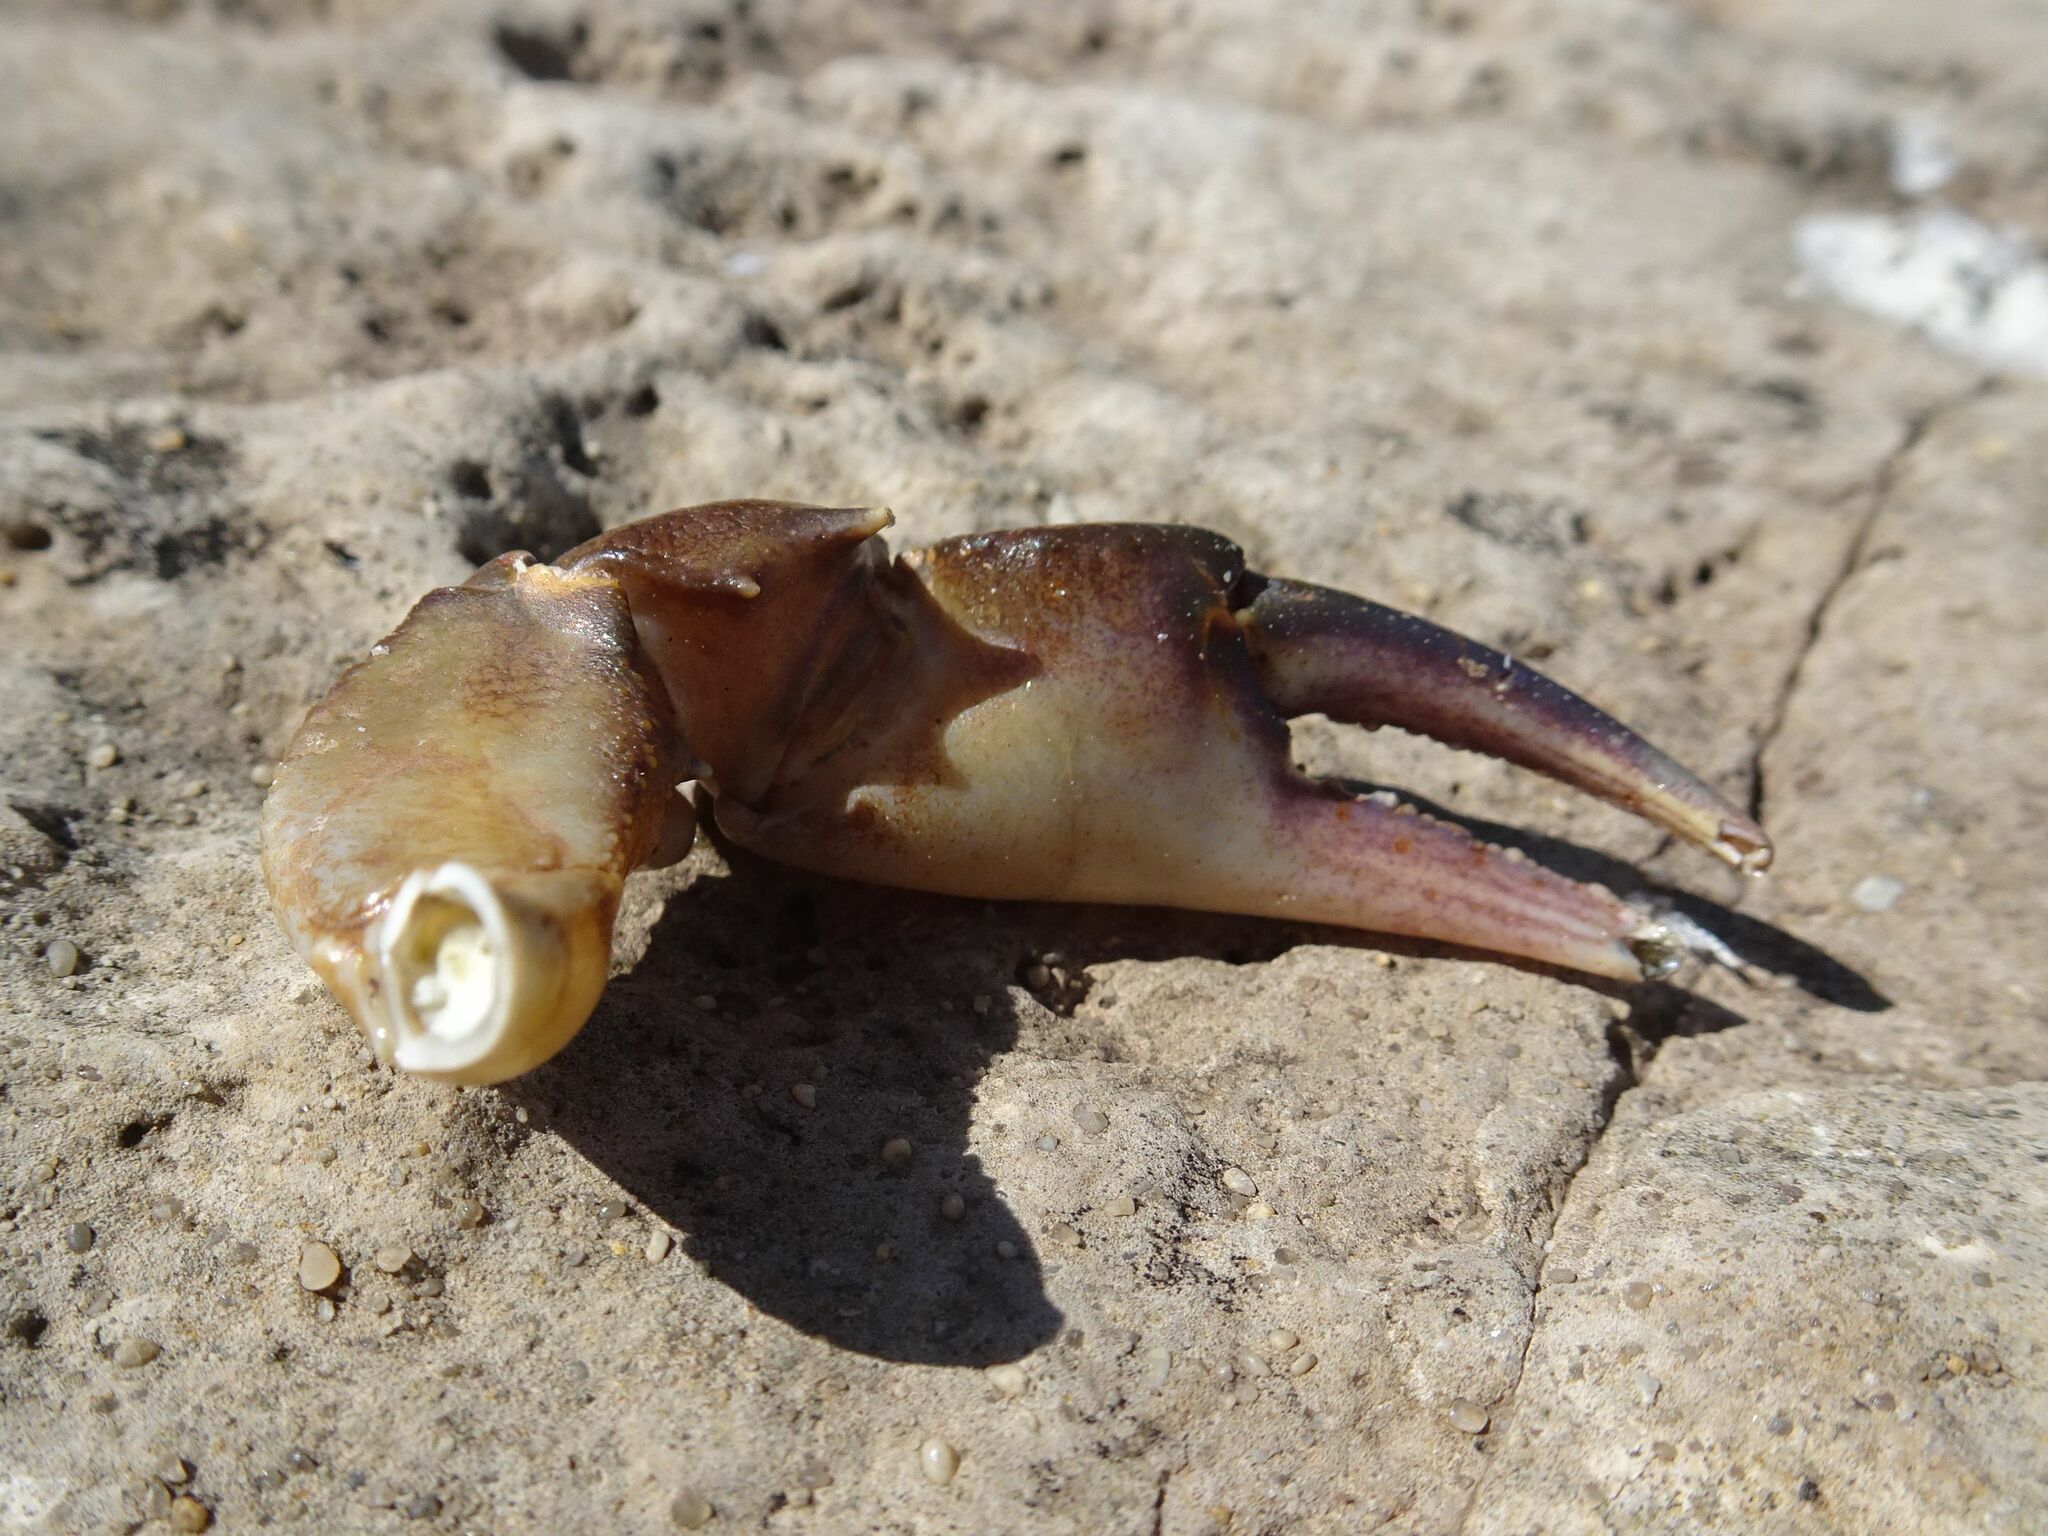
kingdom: Animalia
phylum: Arthropoda
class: Malacostraca
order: Decapoda
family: Potamonautidae
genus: Potamonautes
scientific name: Potamonautes barnardi
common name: Barnard's crab
